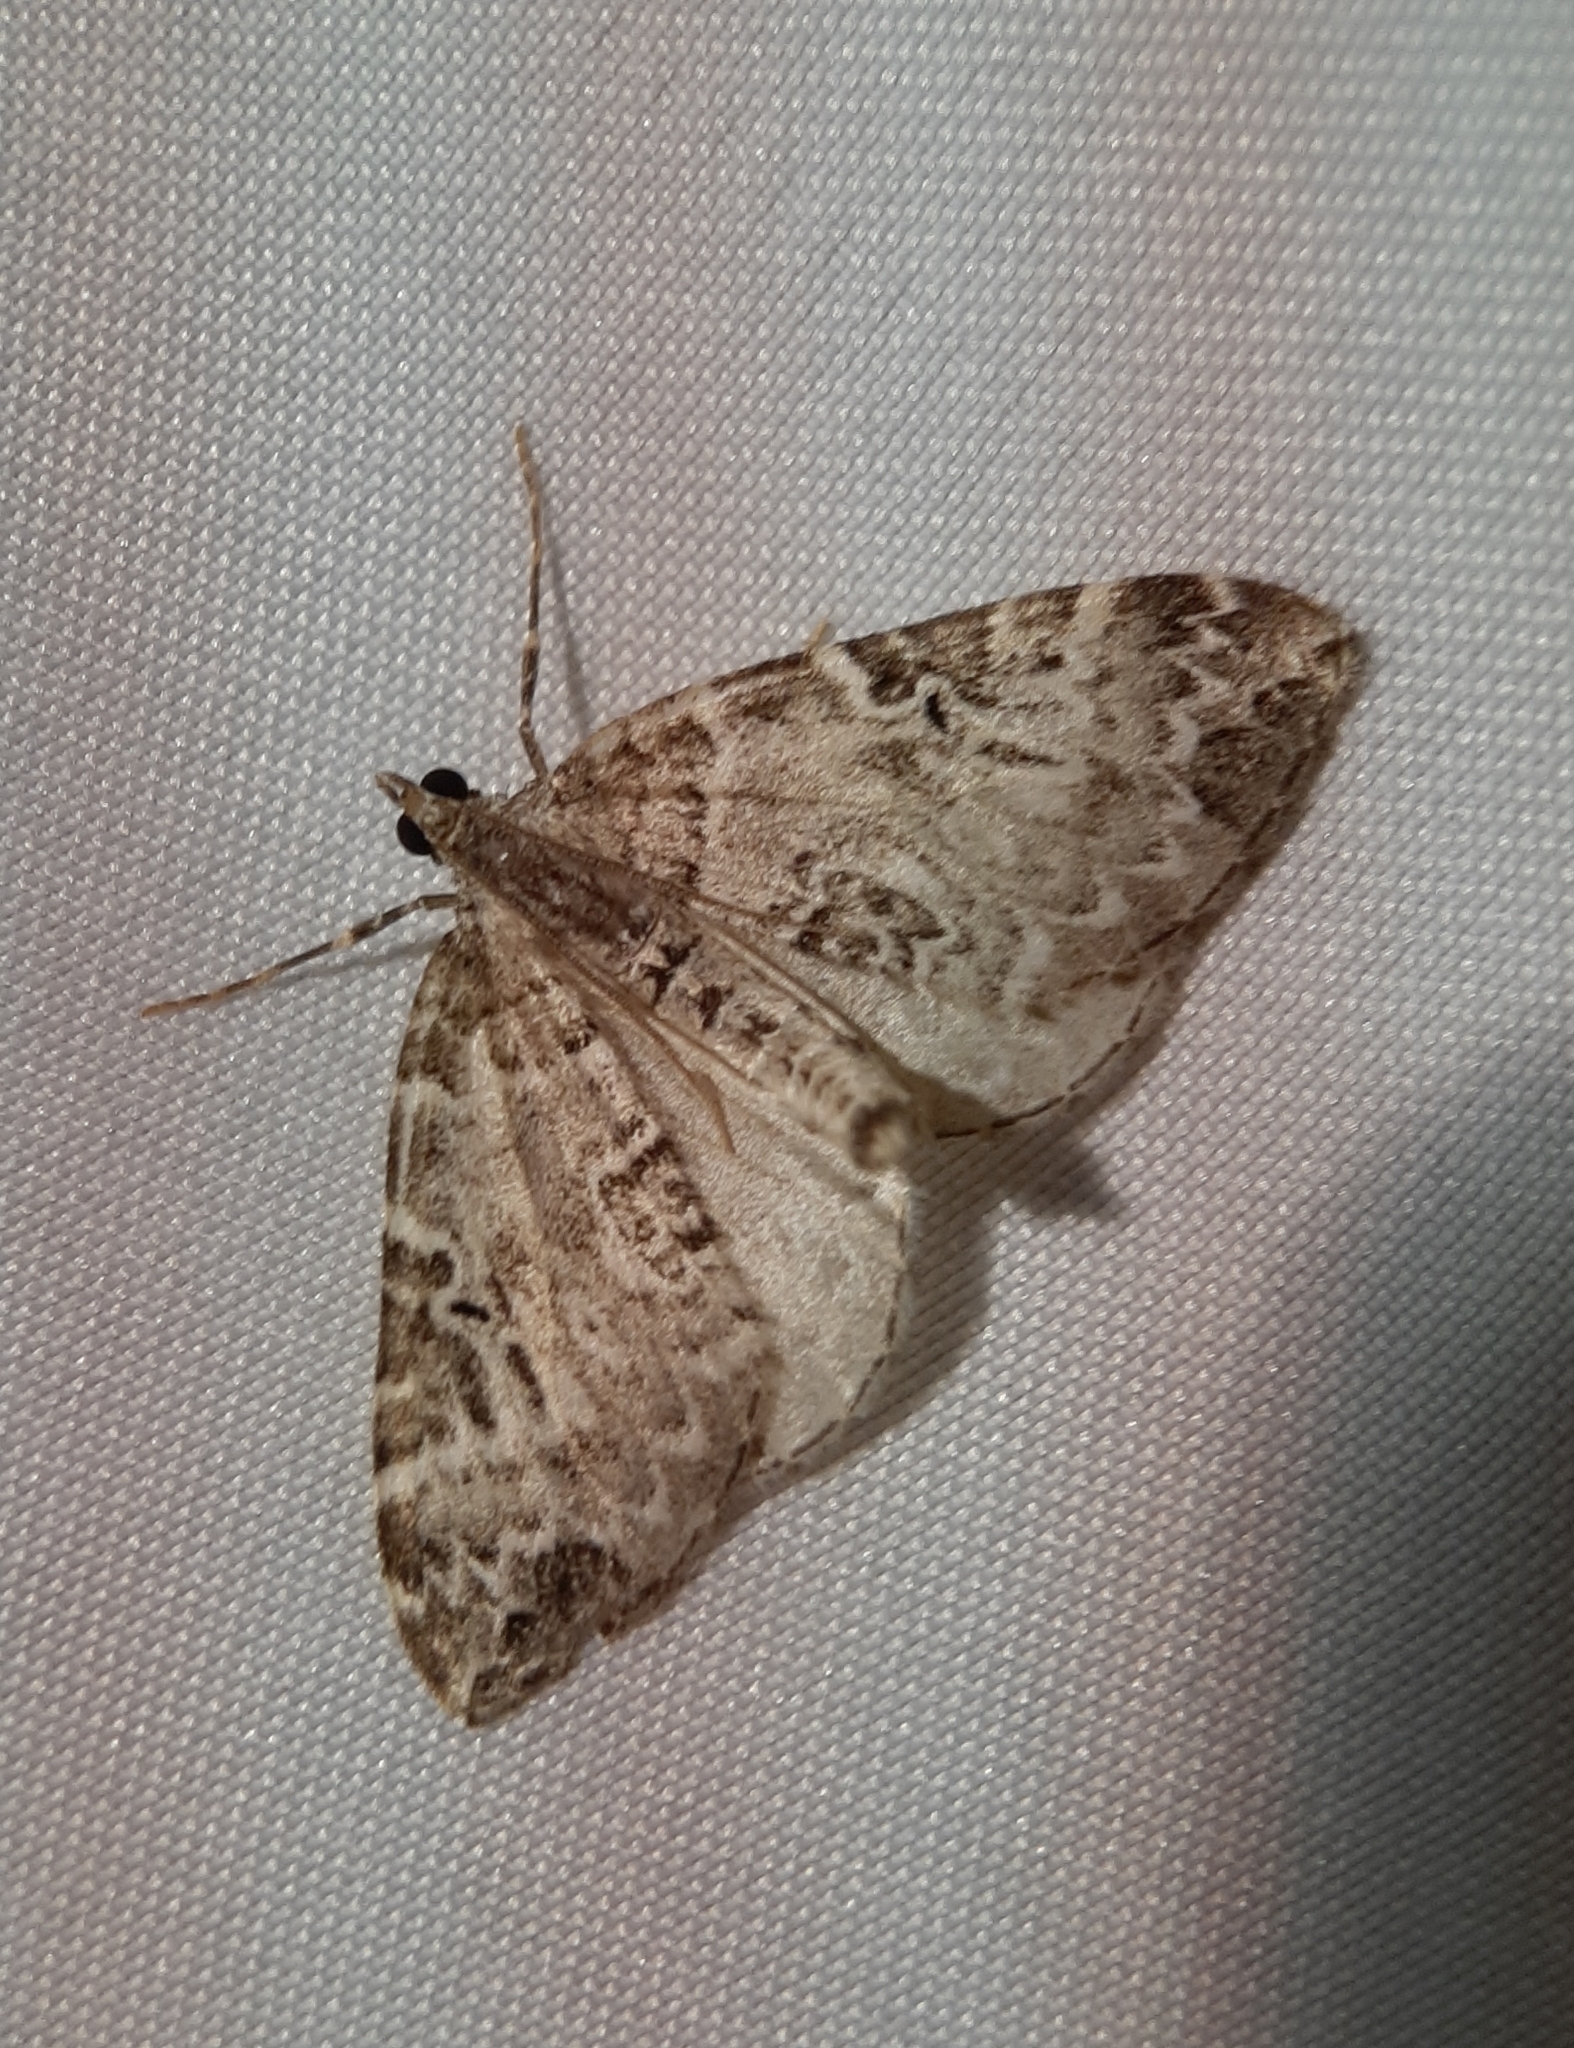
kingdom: Animalia
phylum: Arthropoda
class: Insecta
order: Lepidoptera
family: Geometridae
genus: Eulithis
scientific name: Eulithis explanata
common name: White eulithis
